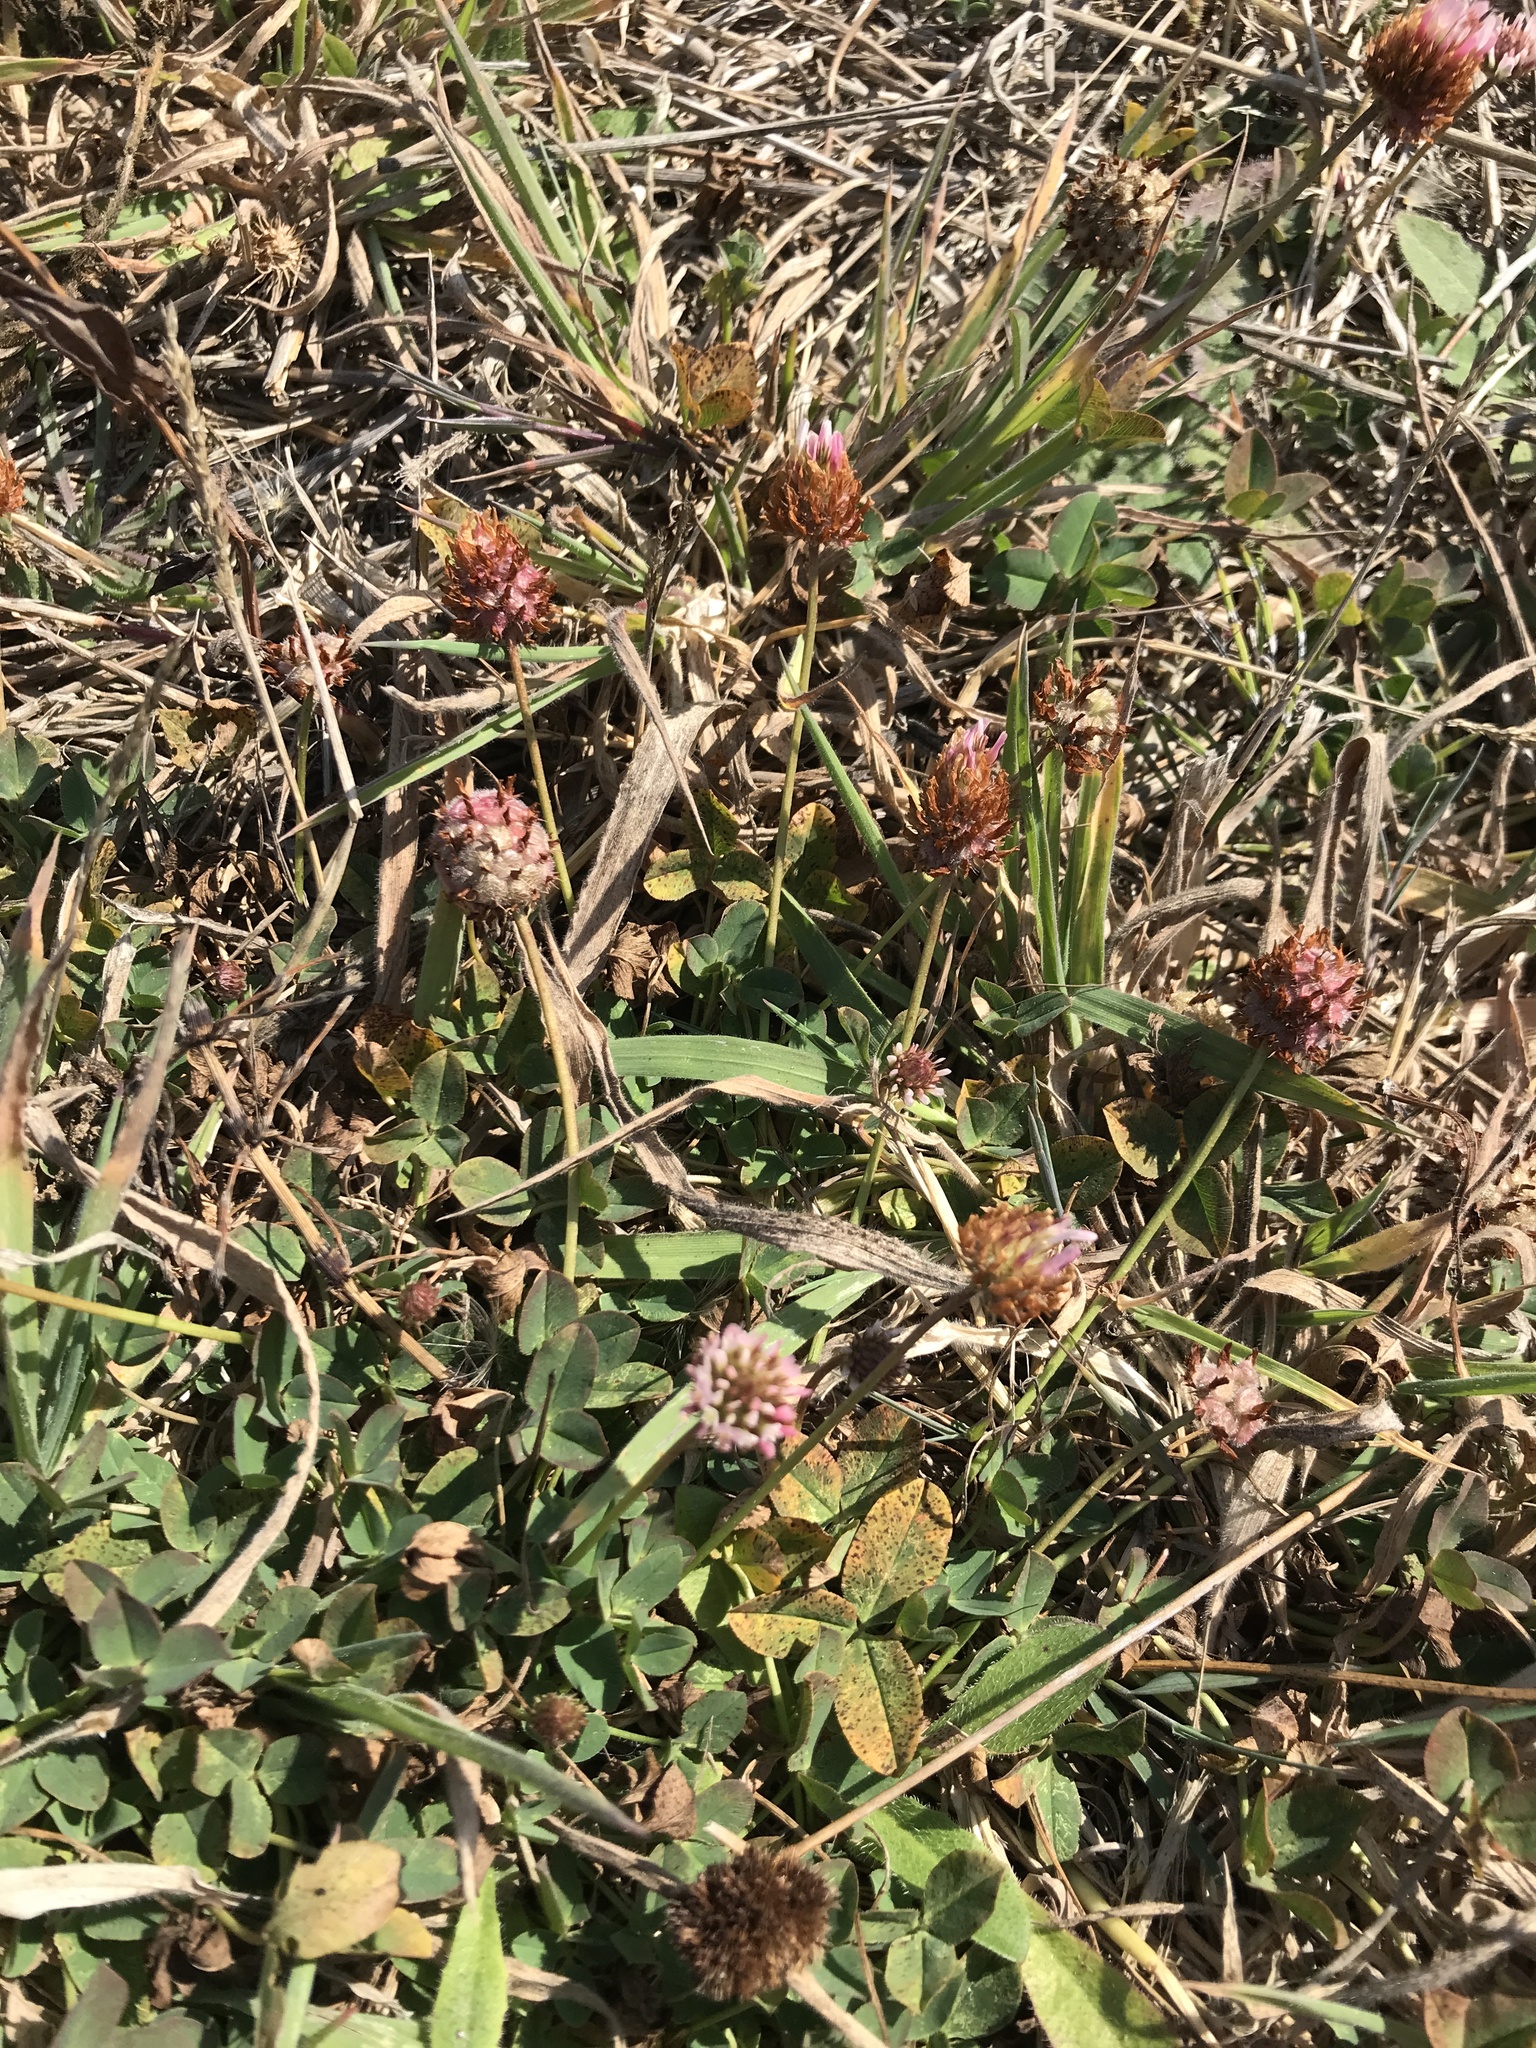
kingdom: Plantae
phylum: Tracheophyta
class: Magnoliopsida
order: Fabales
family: Fabaceae
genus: Trifolium
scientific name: Trifolium fragiferum
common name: Strawberry clover
